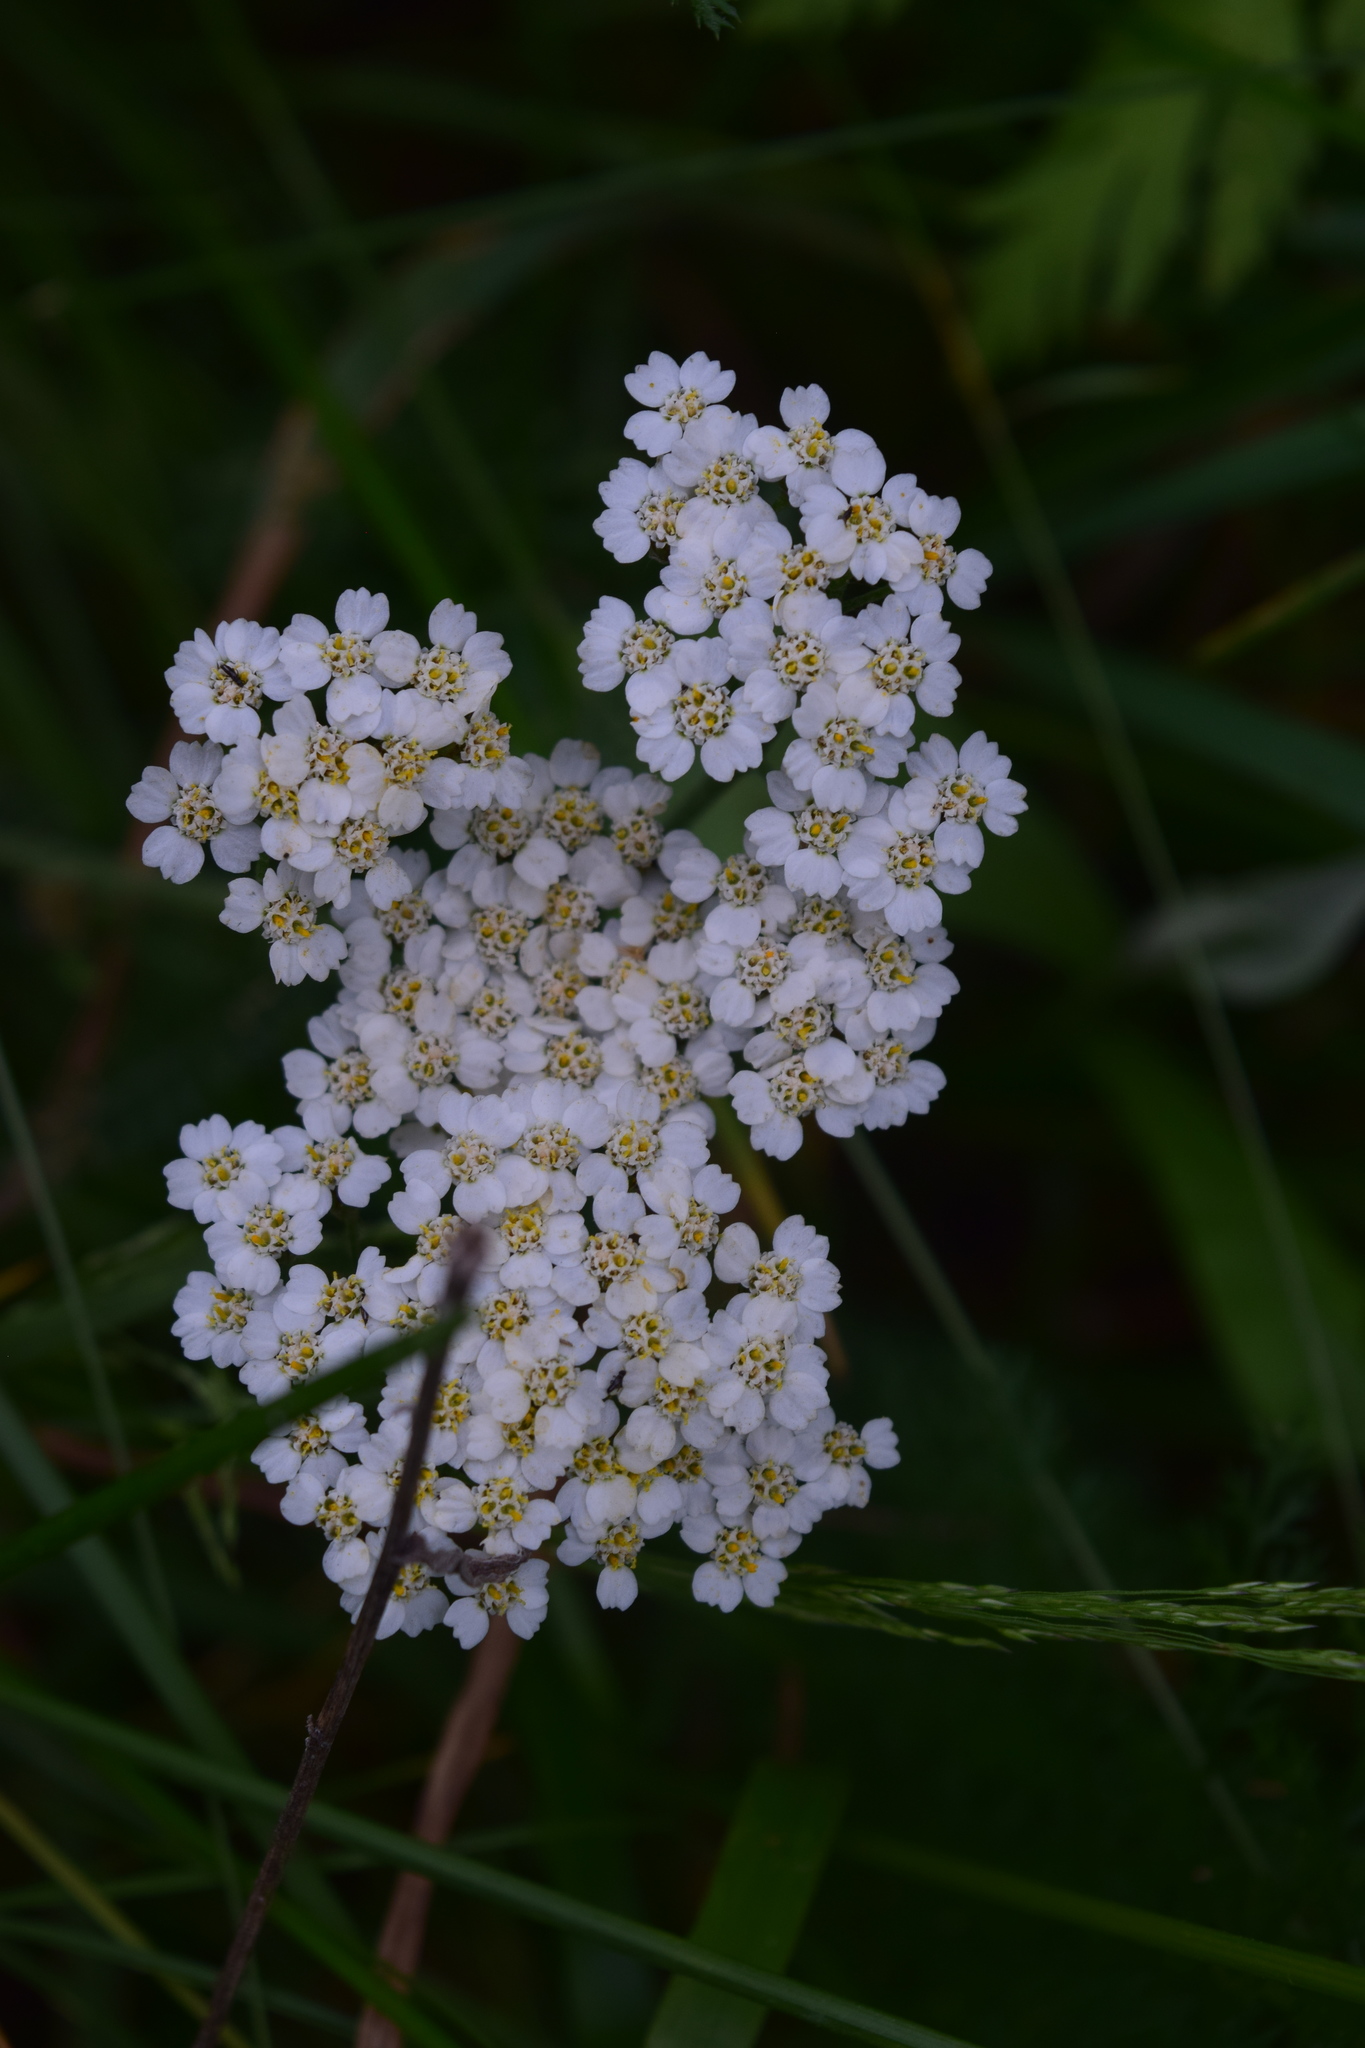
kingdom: Plantae
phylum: Tracheophyta
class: Magnoliopsida
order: Asterales
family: Asteraceae
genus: Achillea
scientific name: Achillea millefolium
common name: Yarrow
